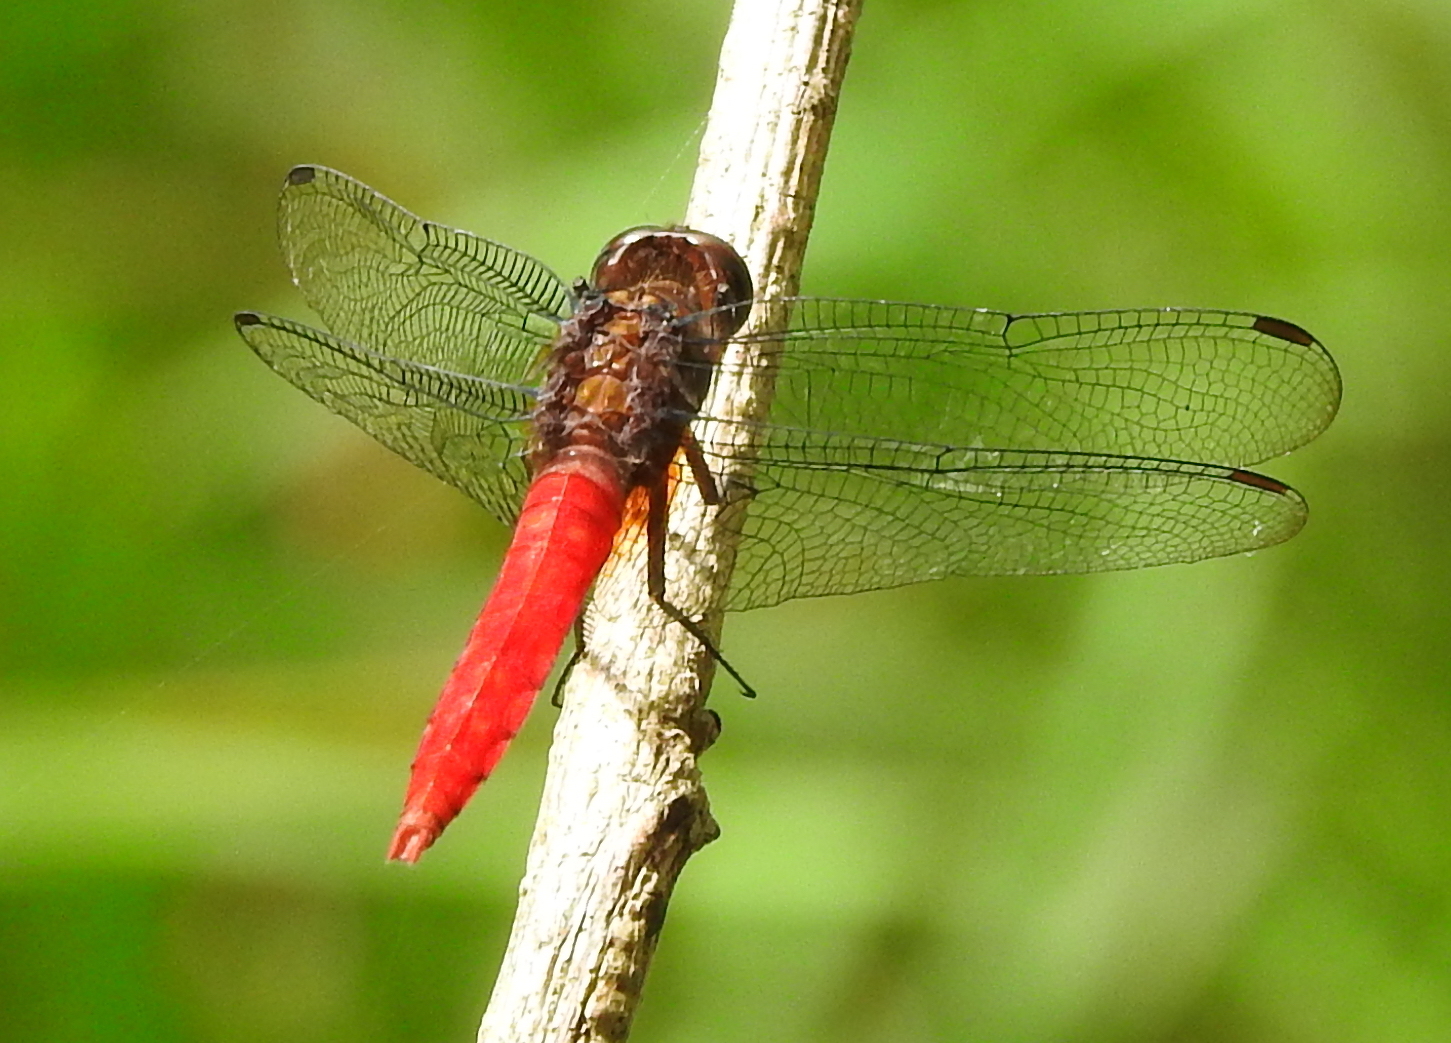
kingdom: Animalia
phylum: Arthropoda
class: Insecta
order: Odonata
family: Libellulidae
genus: Orthetrum
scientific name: Orthetrum chrysis
